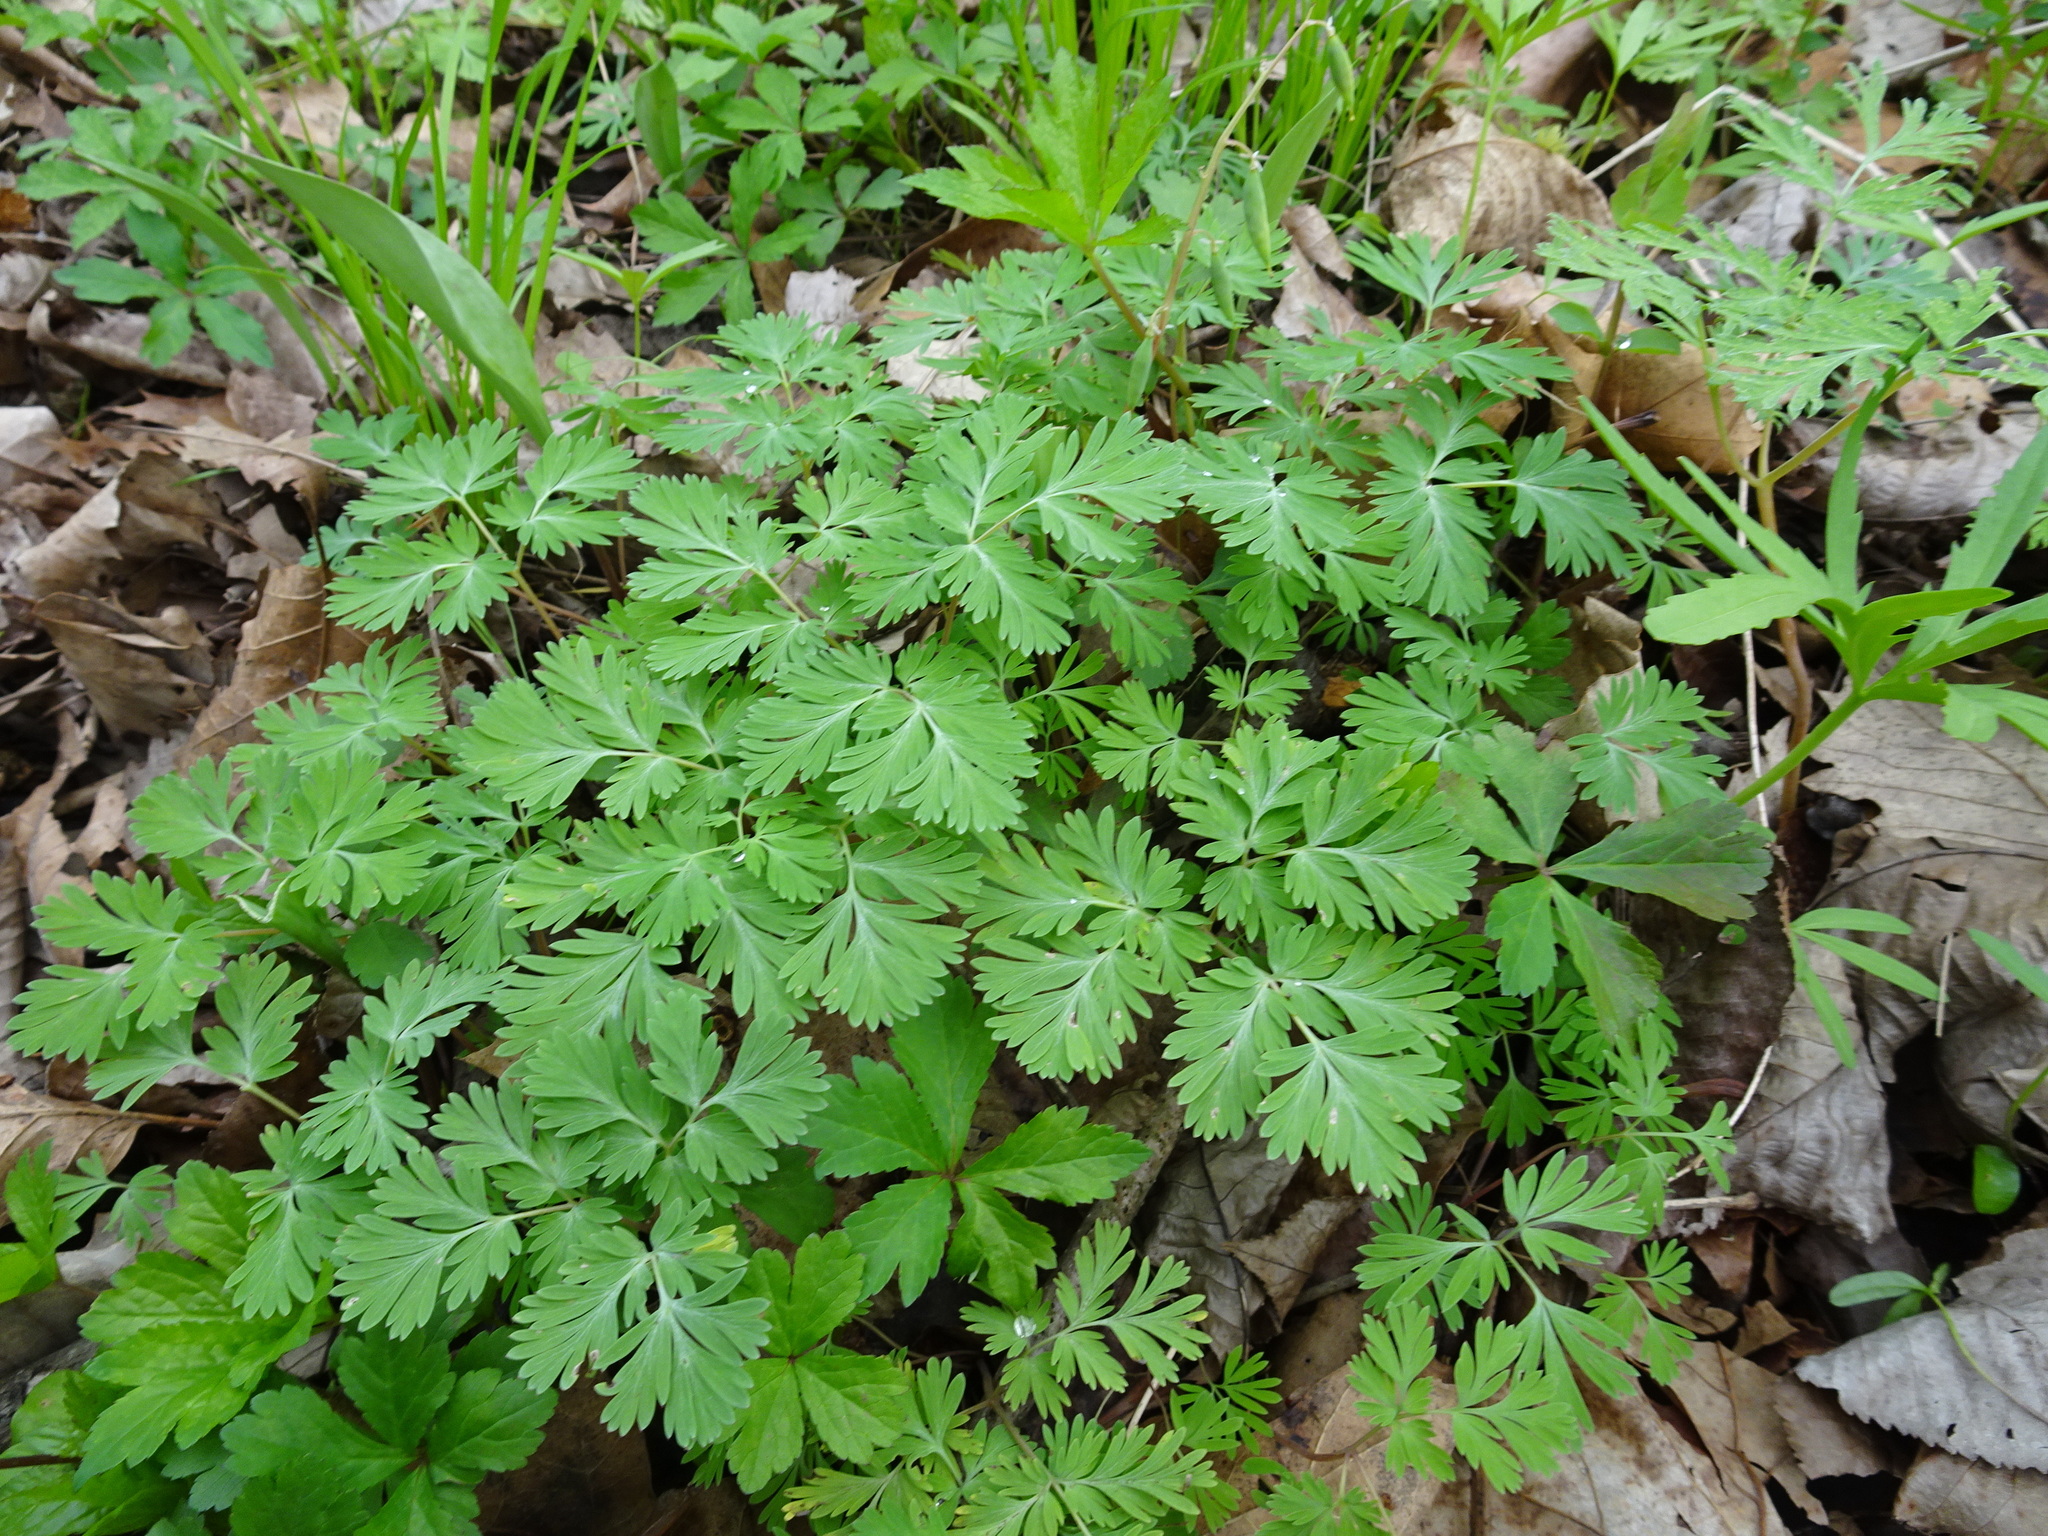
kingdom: Plantae
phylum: Tracheophyta
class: Magnoliopsida
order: Ranunculales
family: Papaveraceae
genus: Dicentra
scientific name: Dicentra cucullaria
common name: Dutchman's breeches
